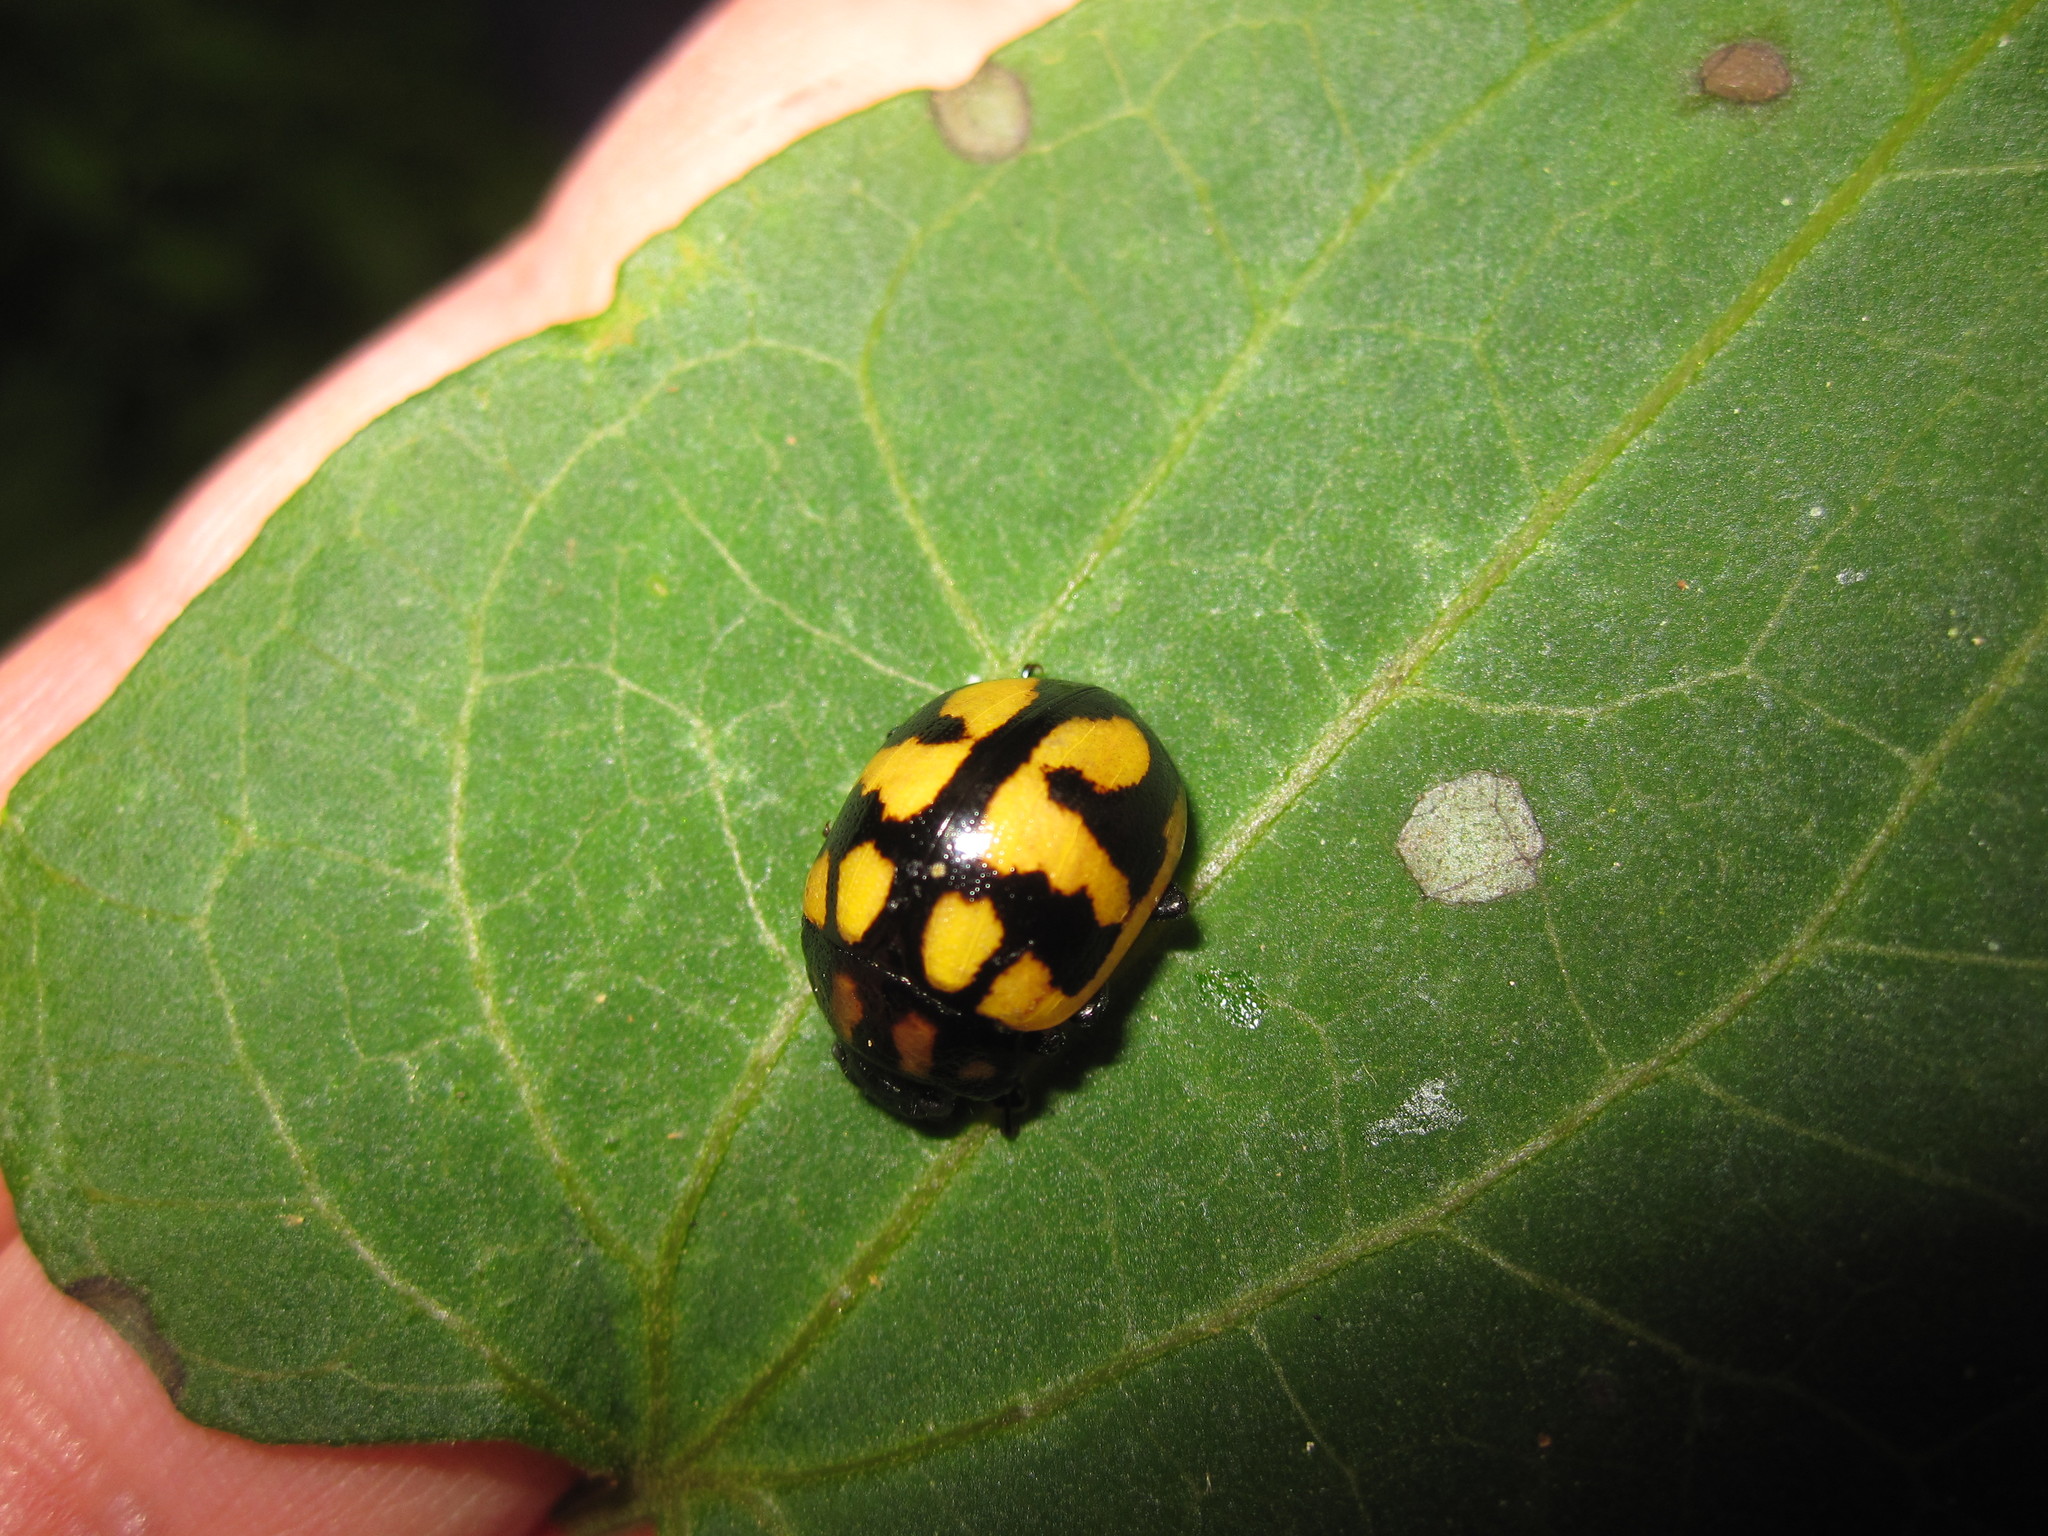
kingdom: Animalia
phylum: Arthropoda
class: Insecta
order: Coleoptera
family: Chrysomelidae
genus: Platyphora
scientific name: Platyphora
